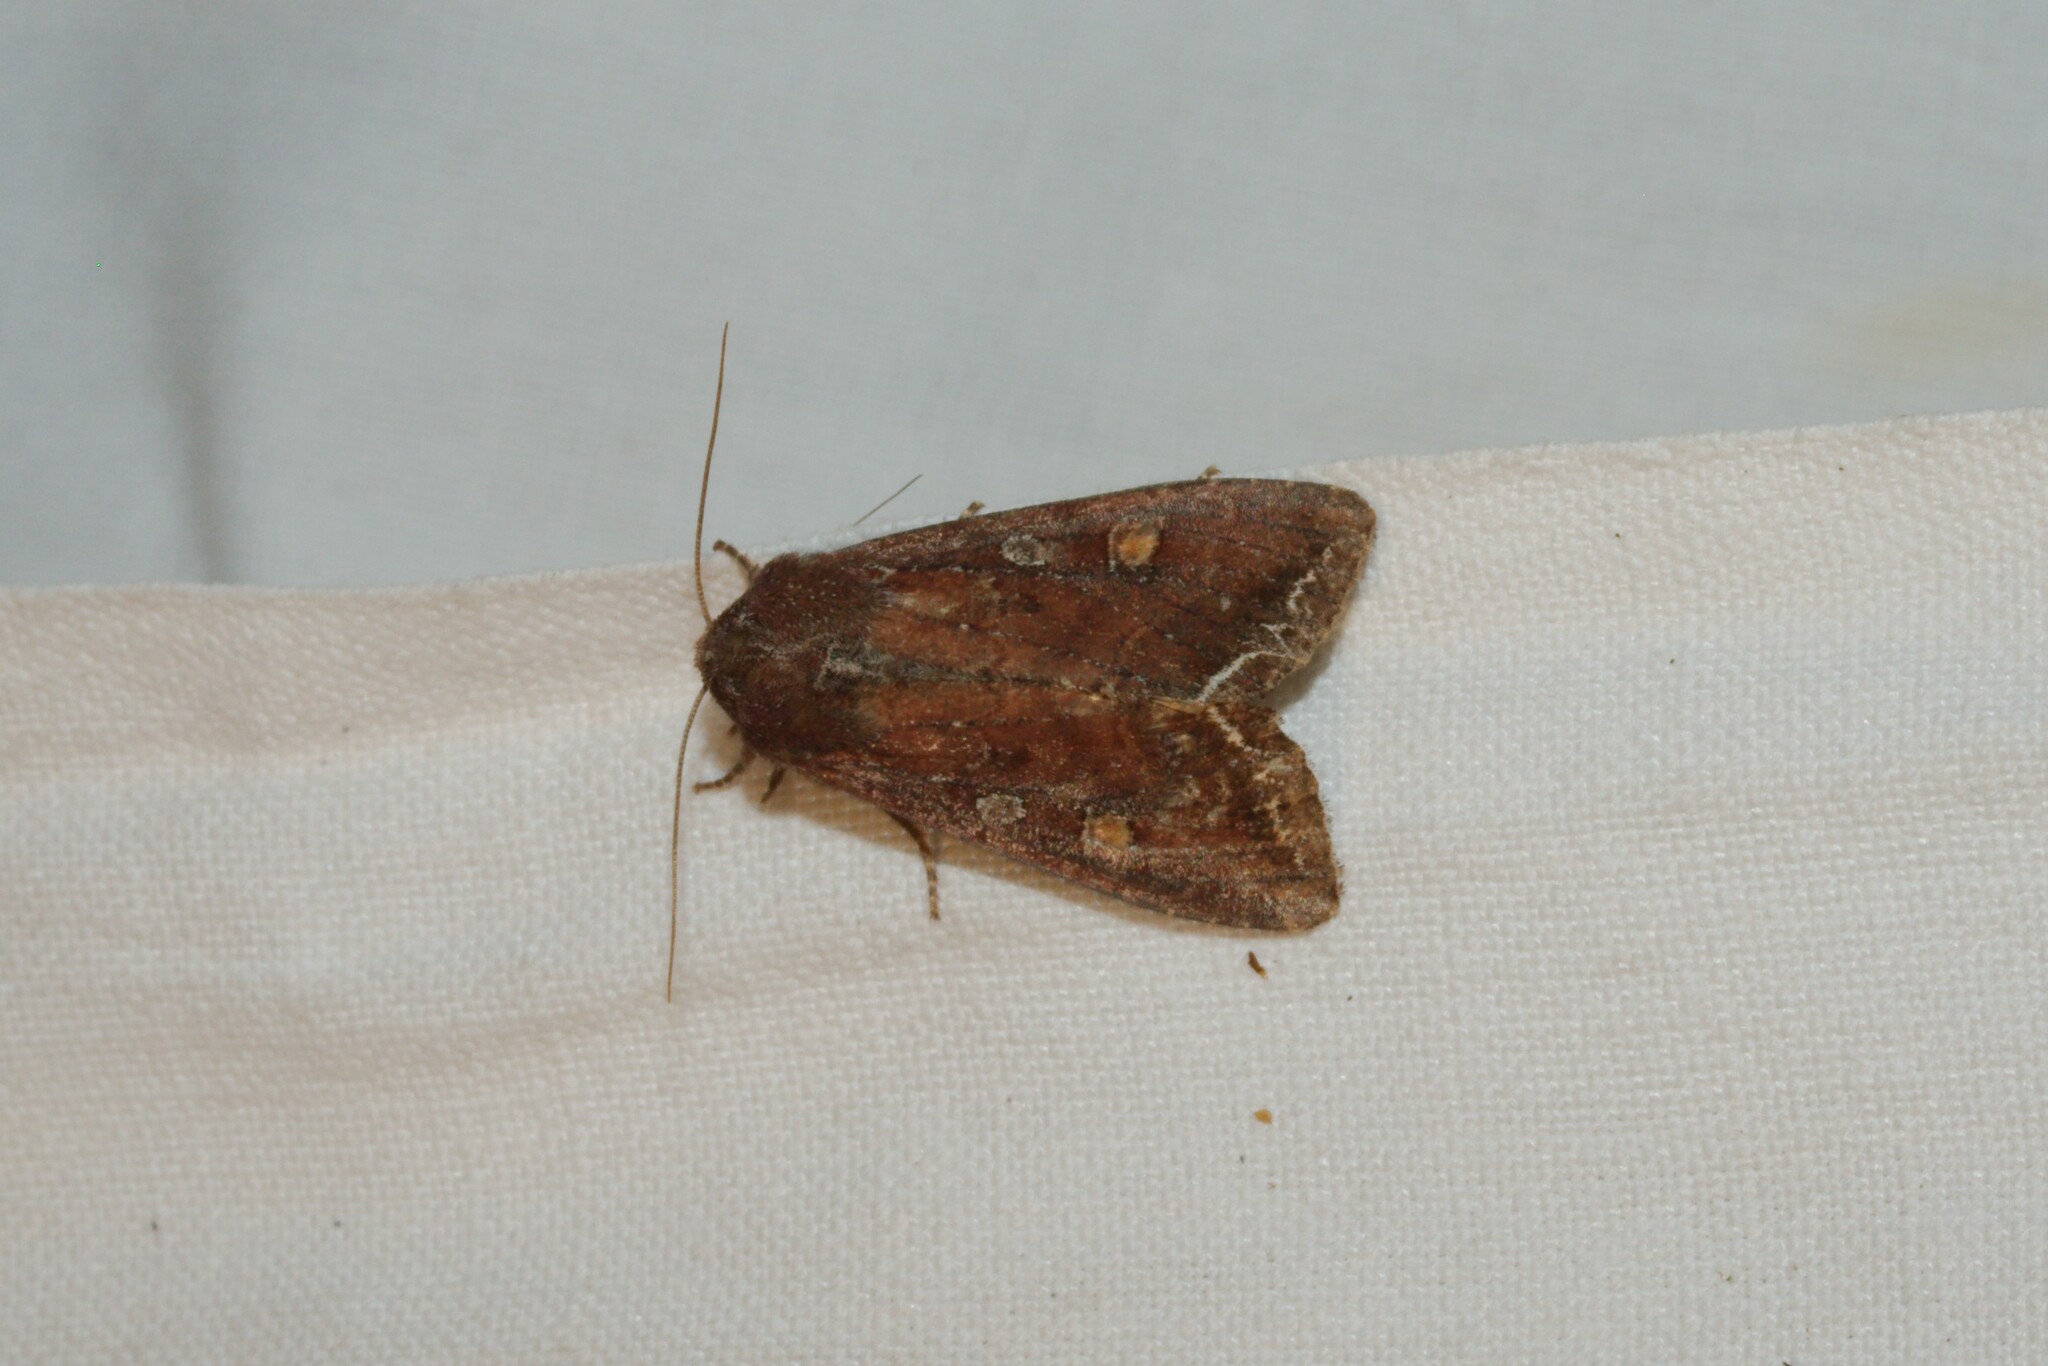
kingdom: Animalia
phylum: Arthropoda
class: Insecta
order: Lepidoptera
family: Noctuidae
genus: Lacanobia
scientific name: Lacanobia oleracea
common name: Bright-line brown-eye
